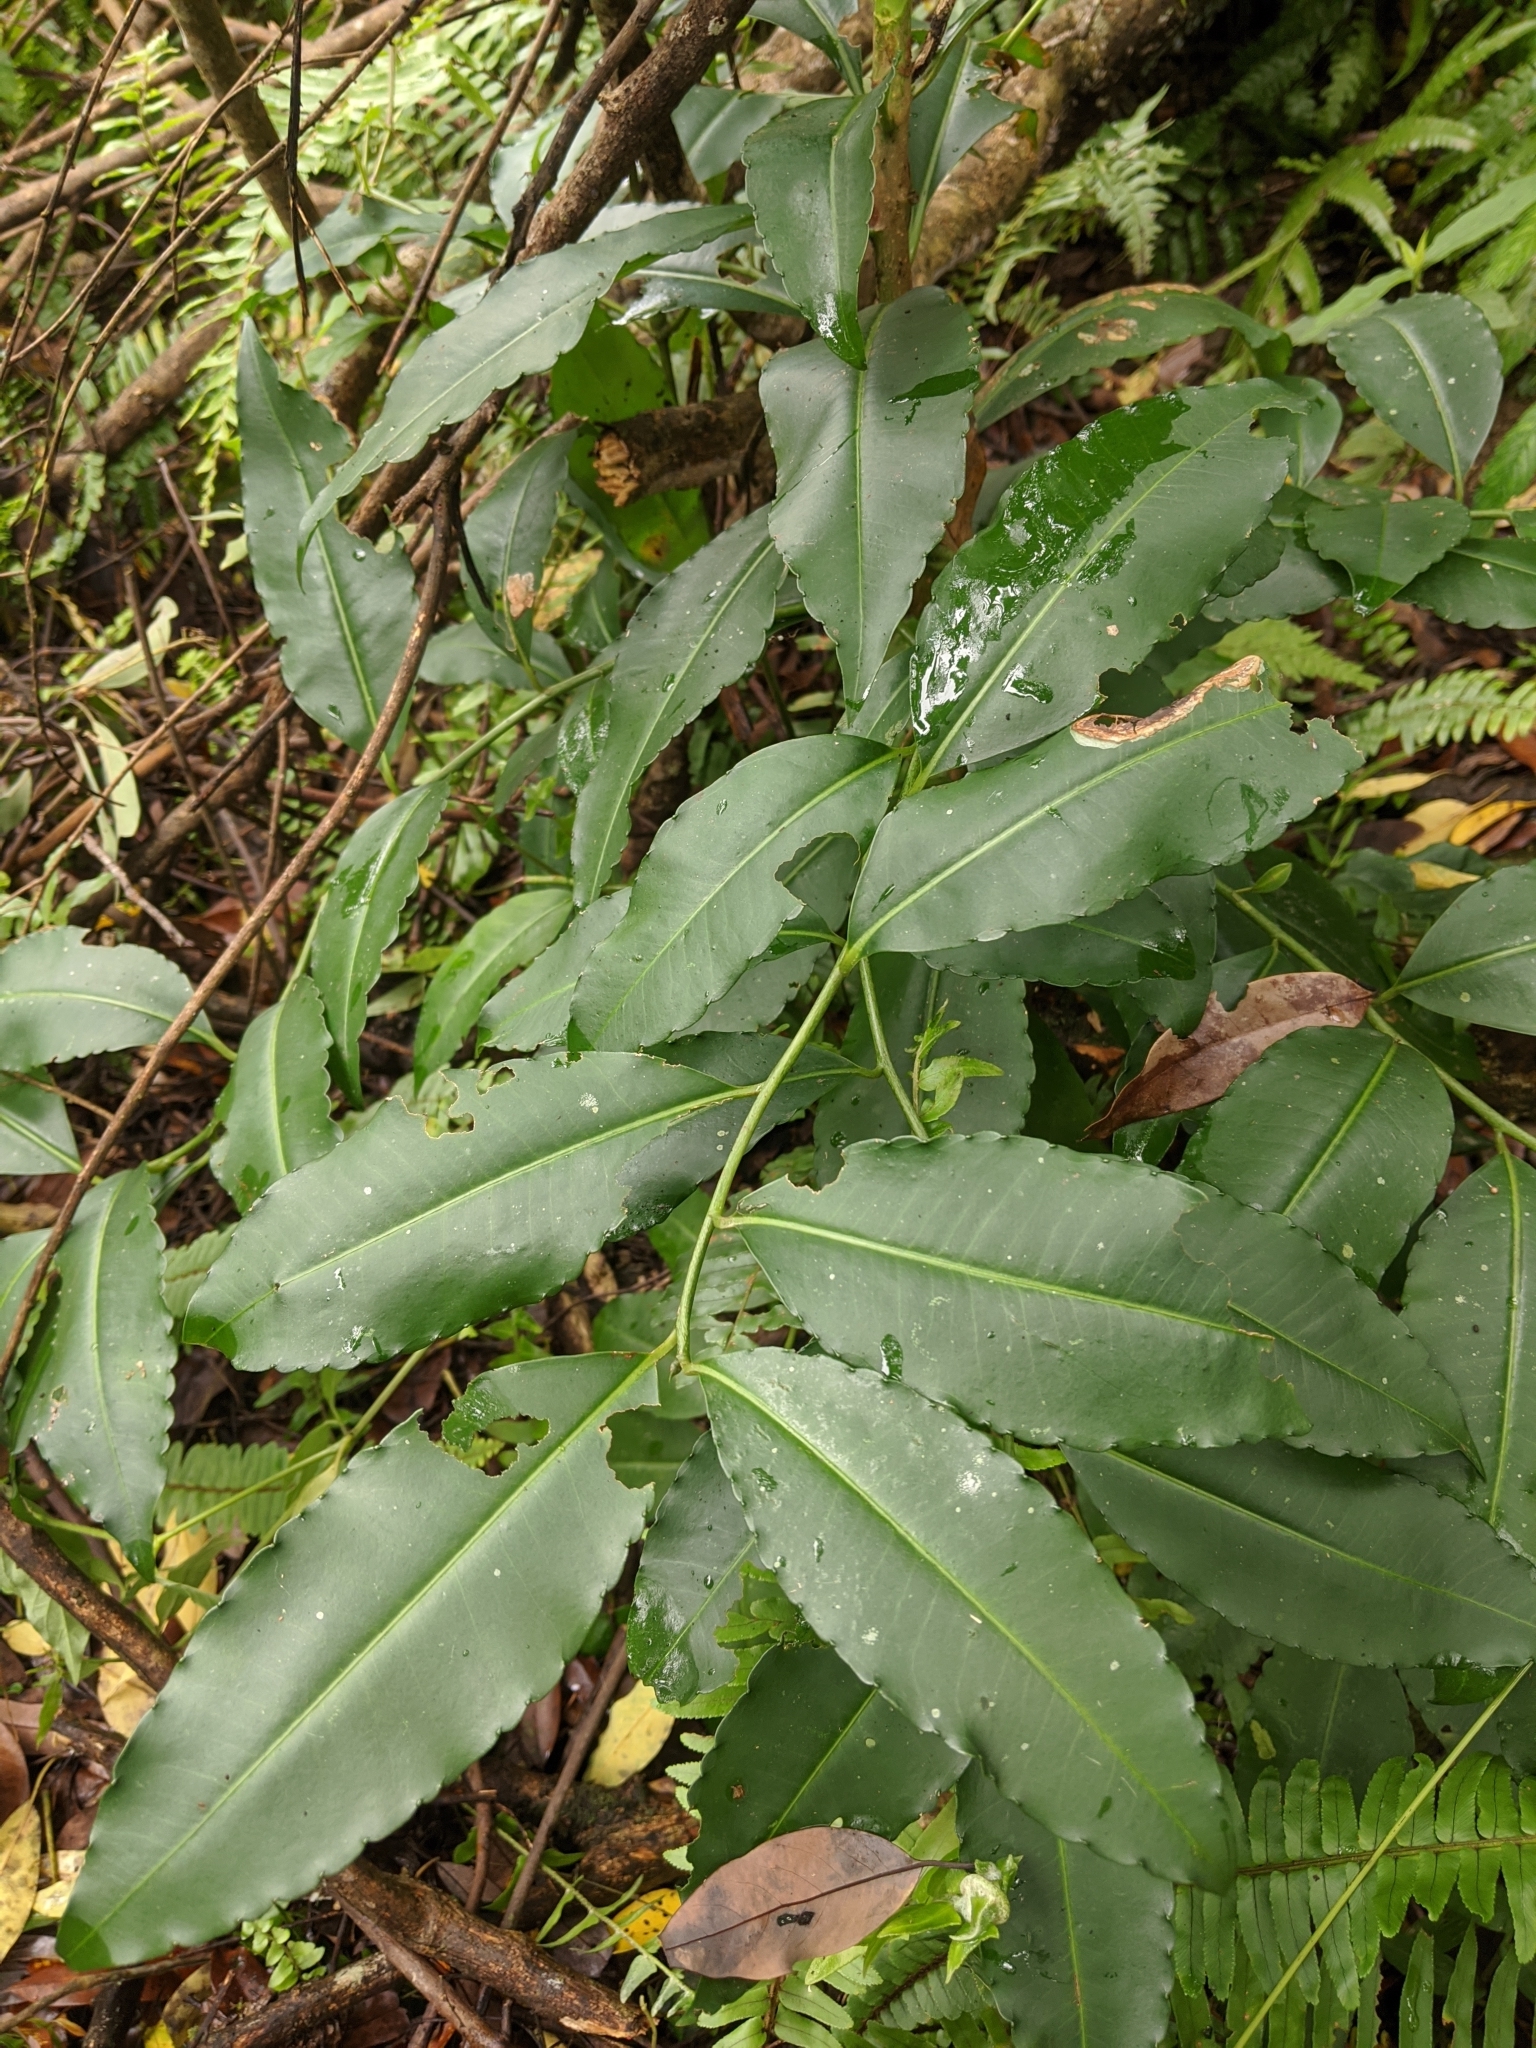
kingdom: Plantae
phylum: Tracheophyta
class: Magnoliopsida
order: Ericales
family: Primulaceae
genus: Ardisia
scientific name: Ardisia polysticta
